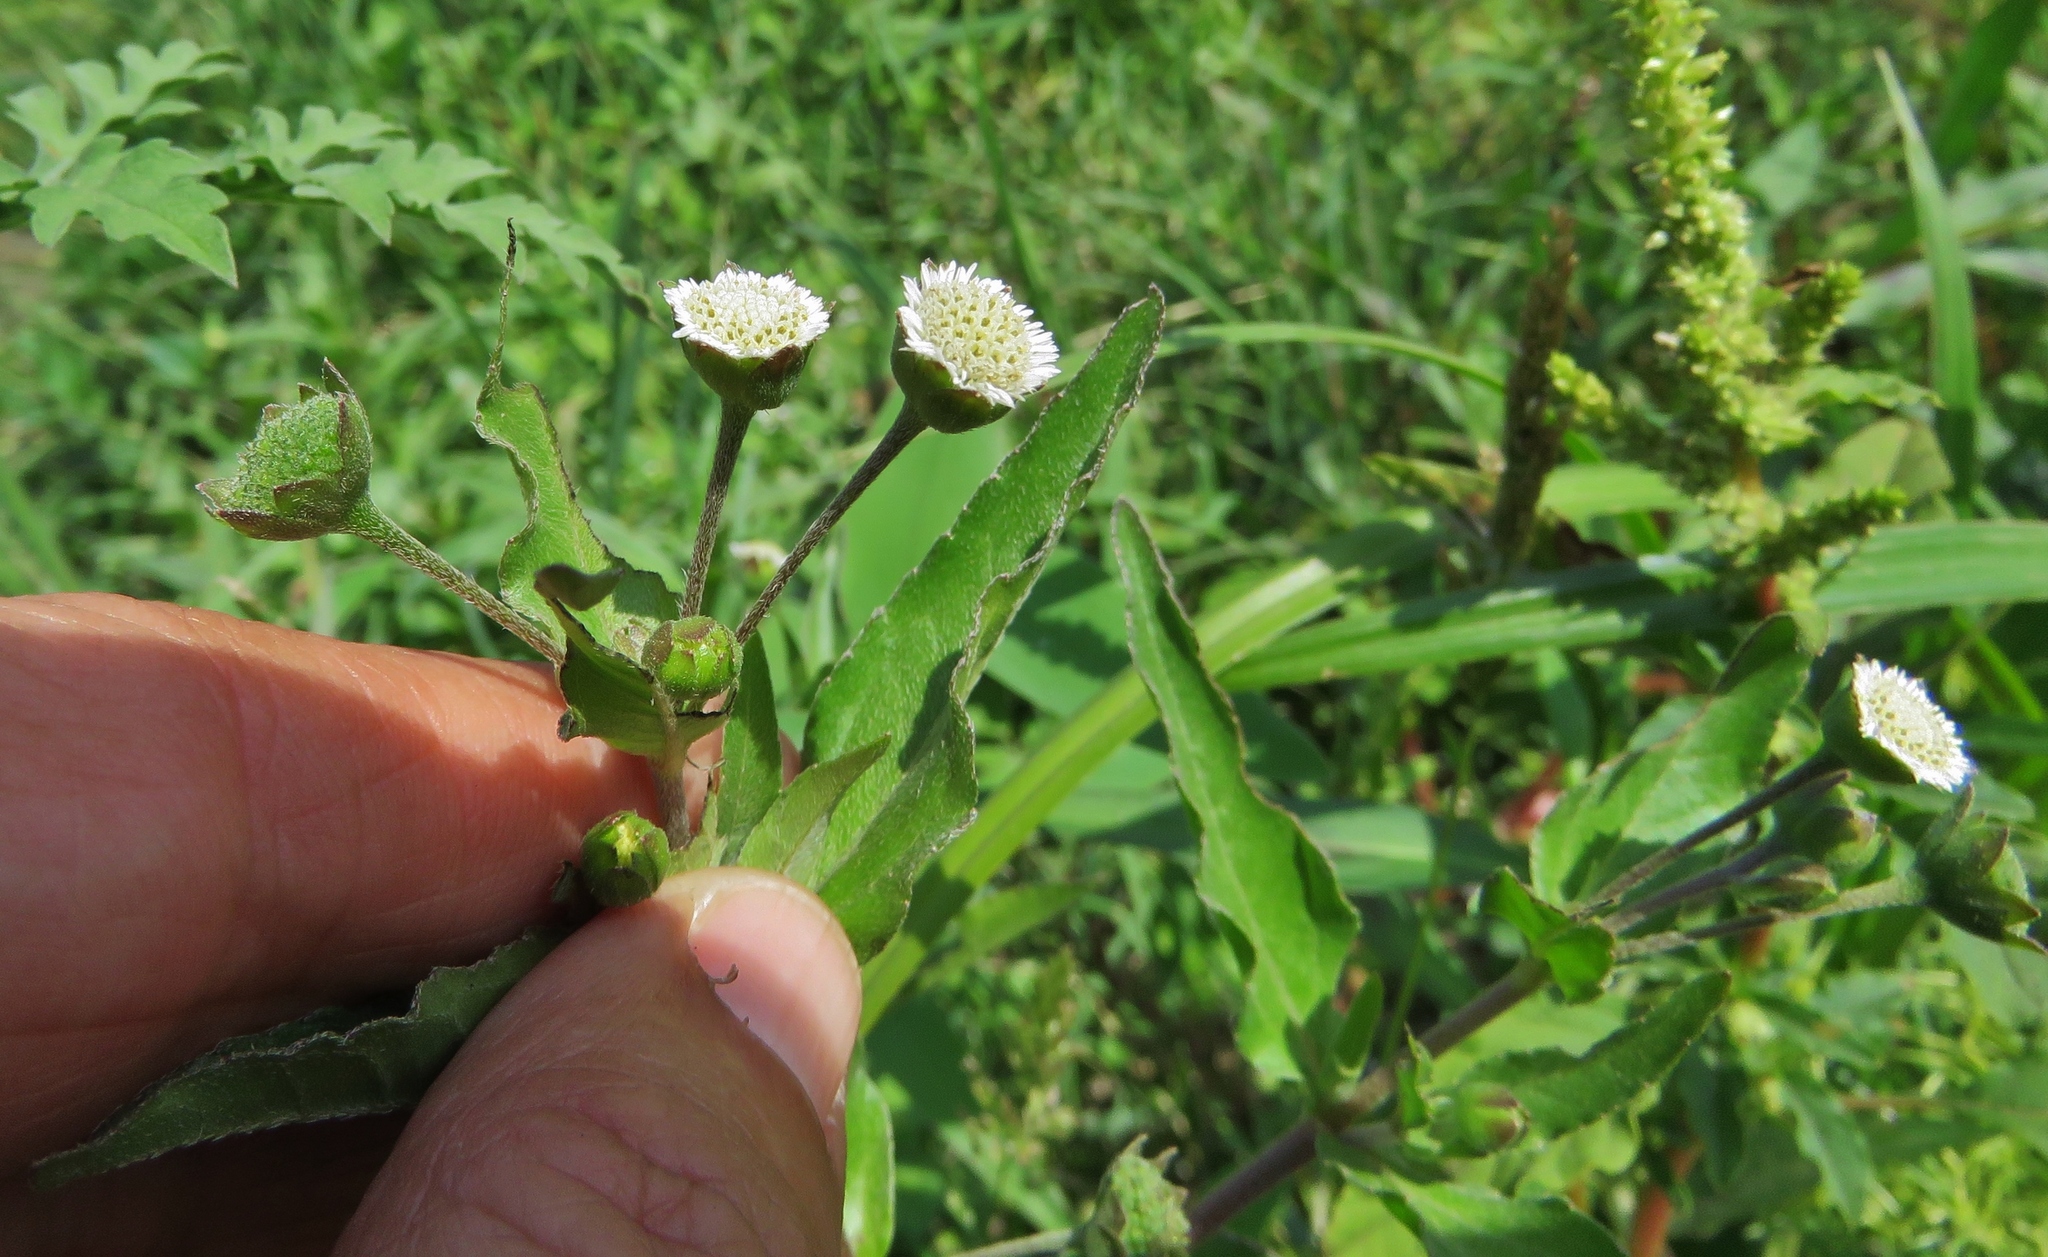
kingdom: Plantae
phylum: Tracheophyta
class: Magnoliopsida
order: Asterales
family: Asteraceae
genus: Eclipta
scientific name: Eclipta prostrata
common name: False daisy
